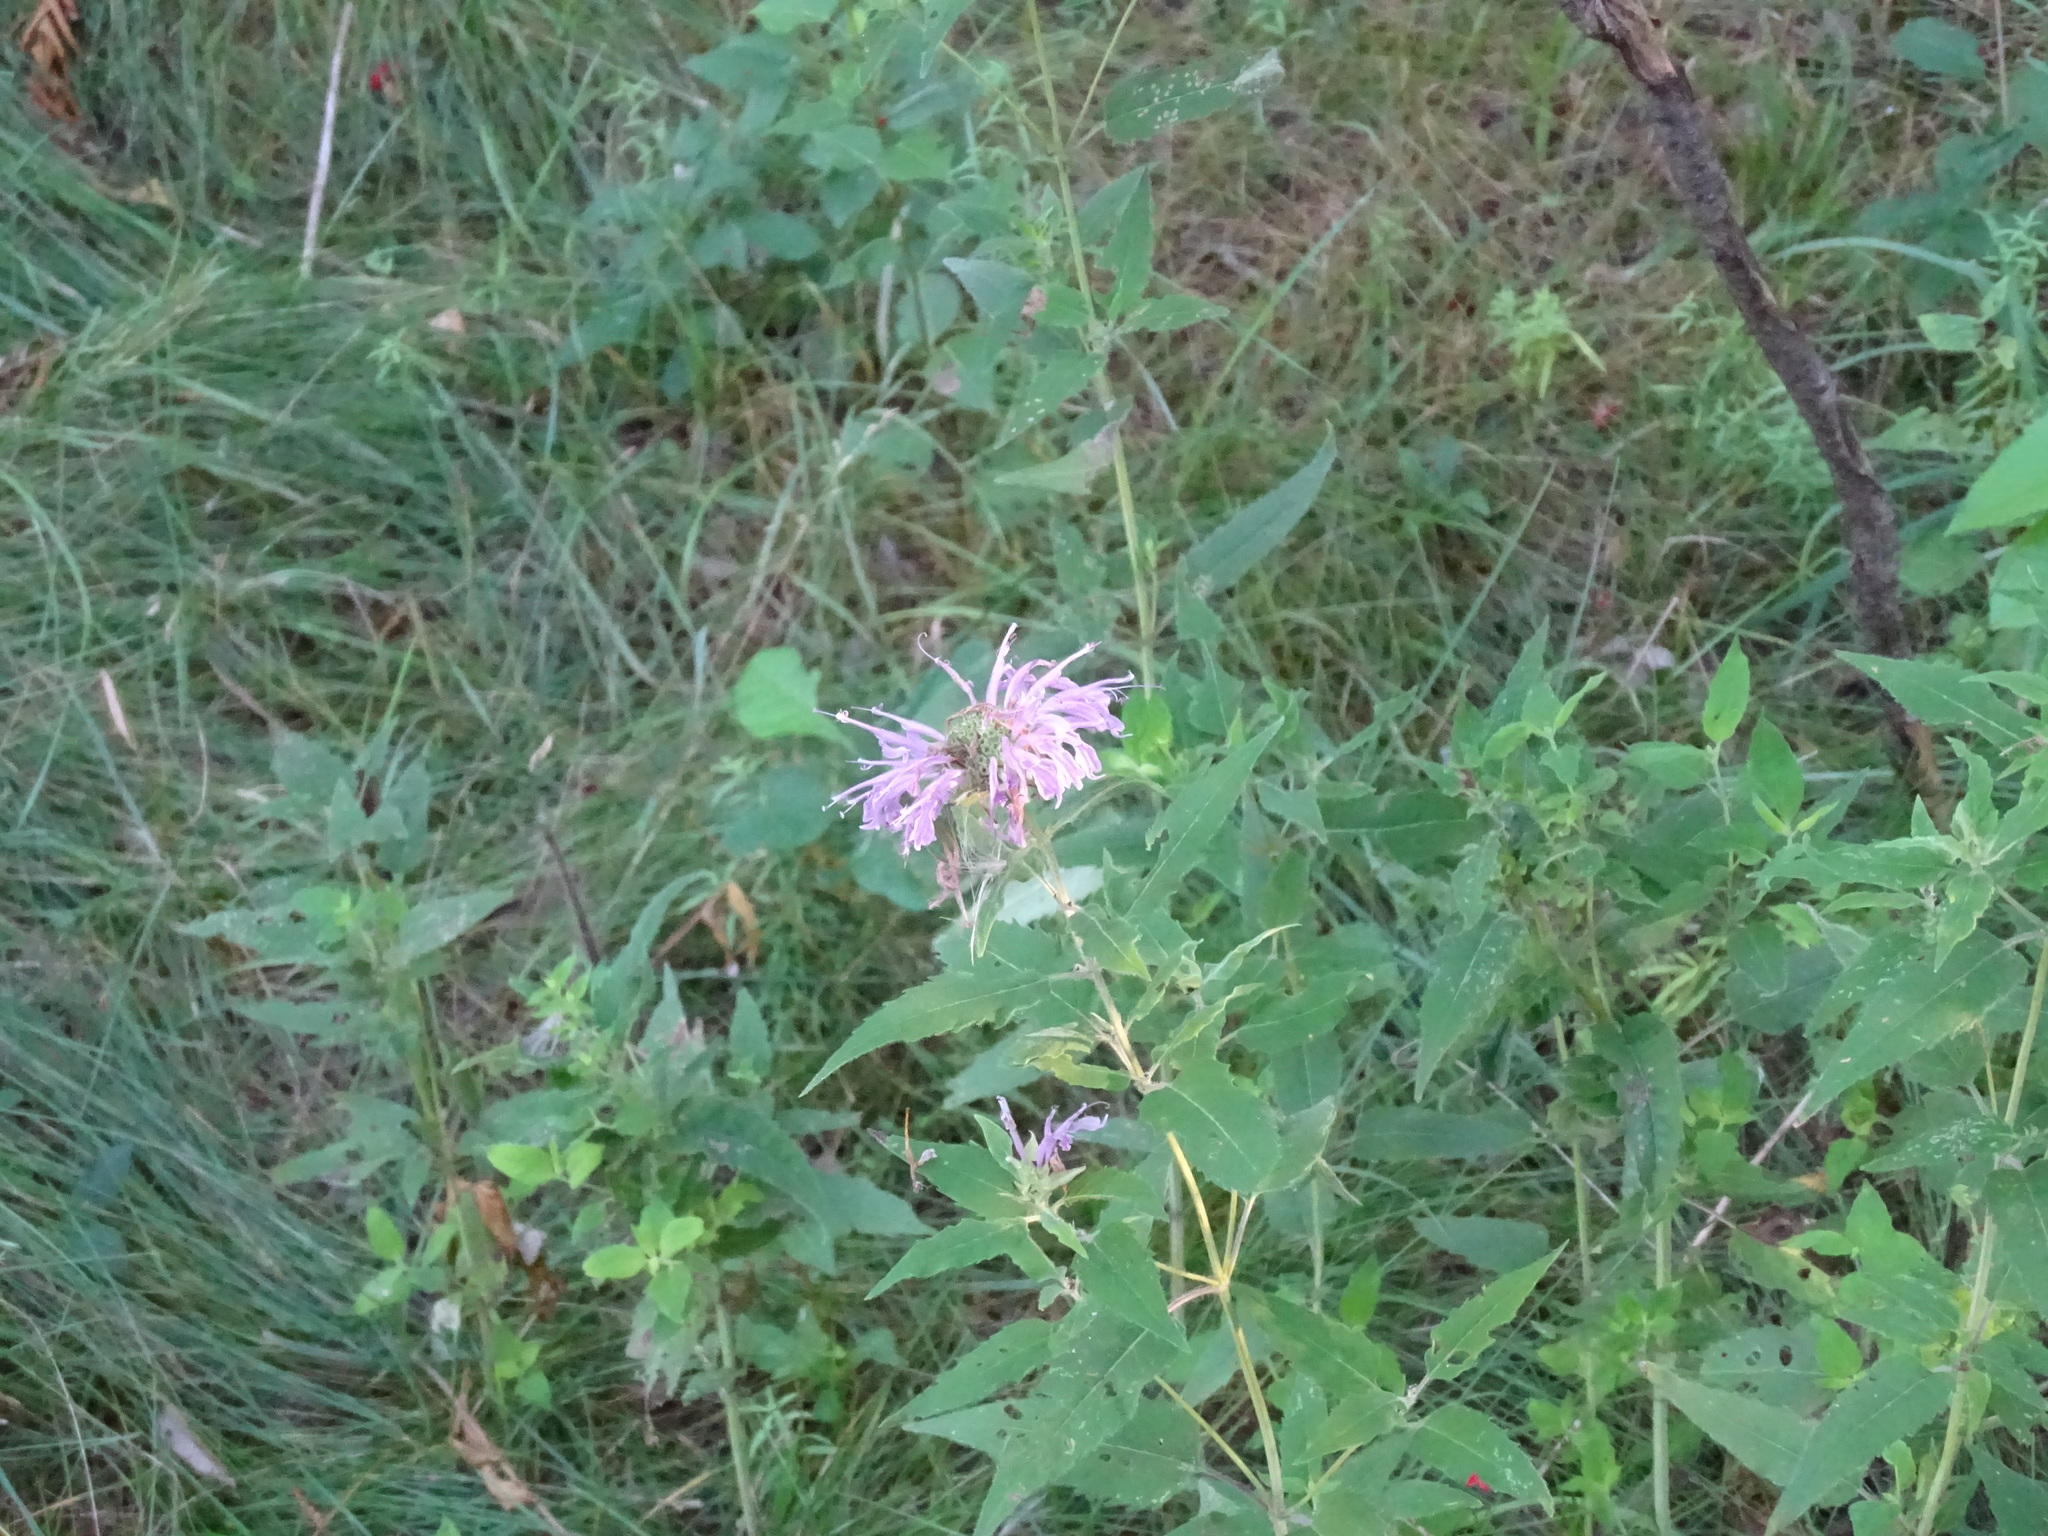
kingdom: Plantae
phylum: Tracheophyta
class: Magnoliopsida
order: Lamiales
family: Lamiaceae
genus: Monarda
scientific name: Monarda fistulosa
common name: Purple beebalm
